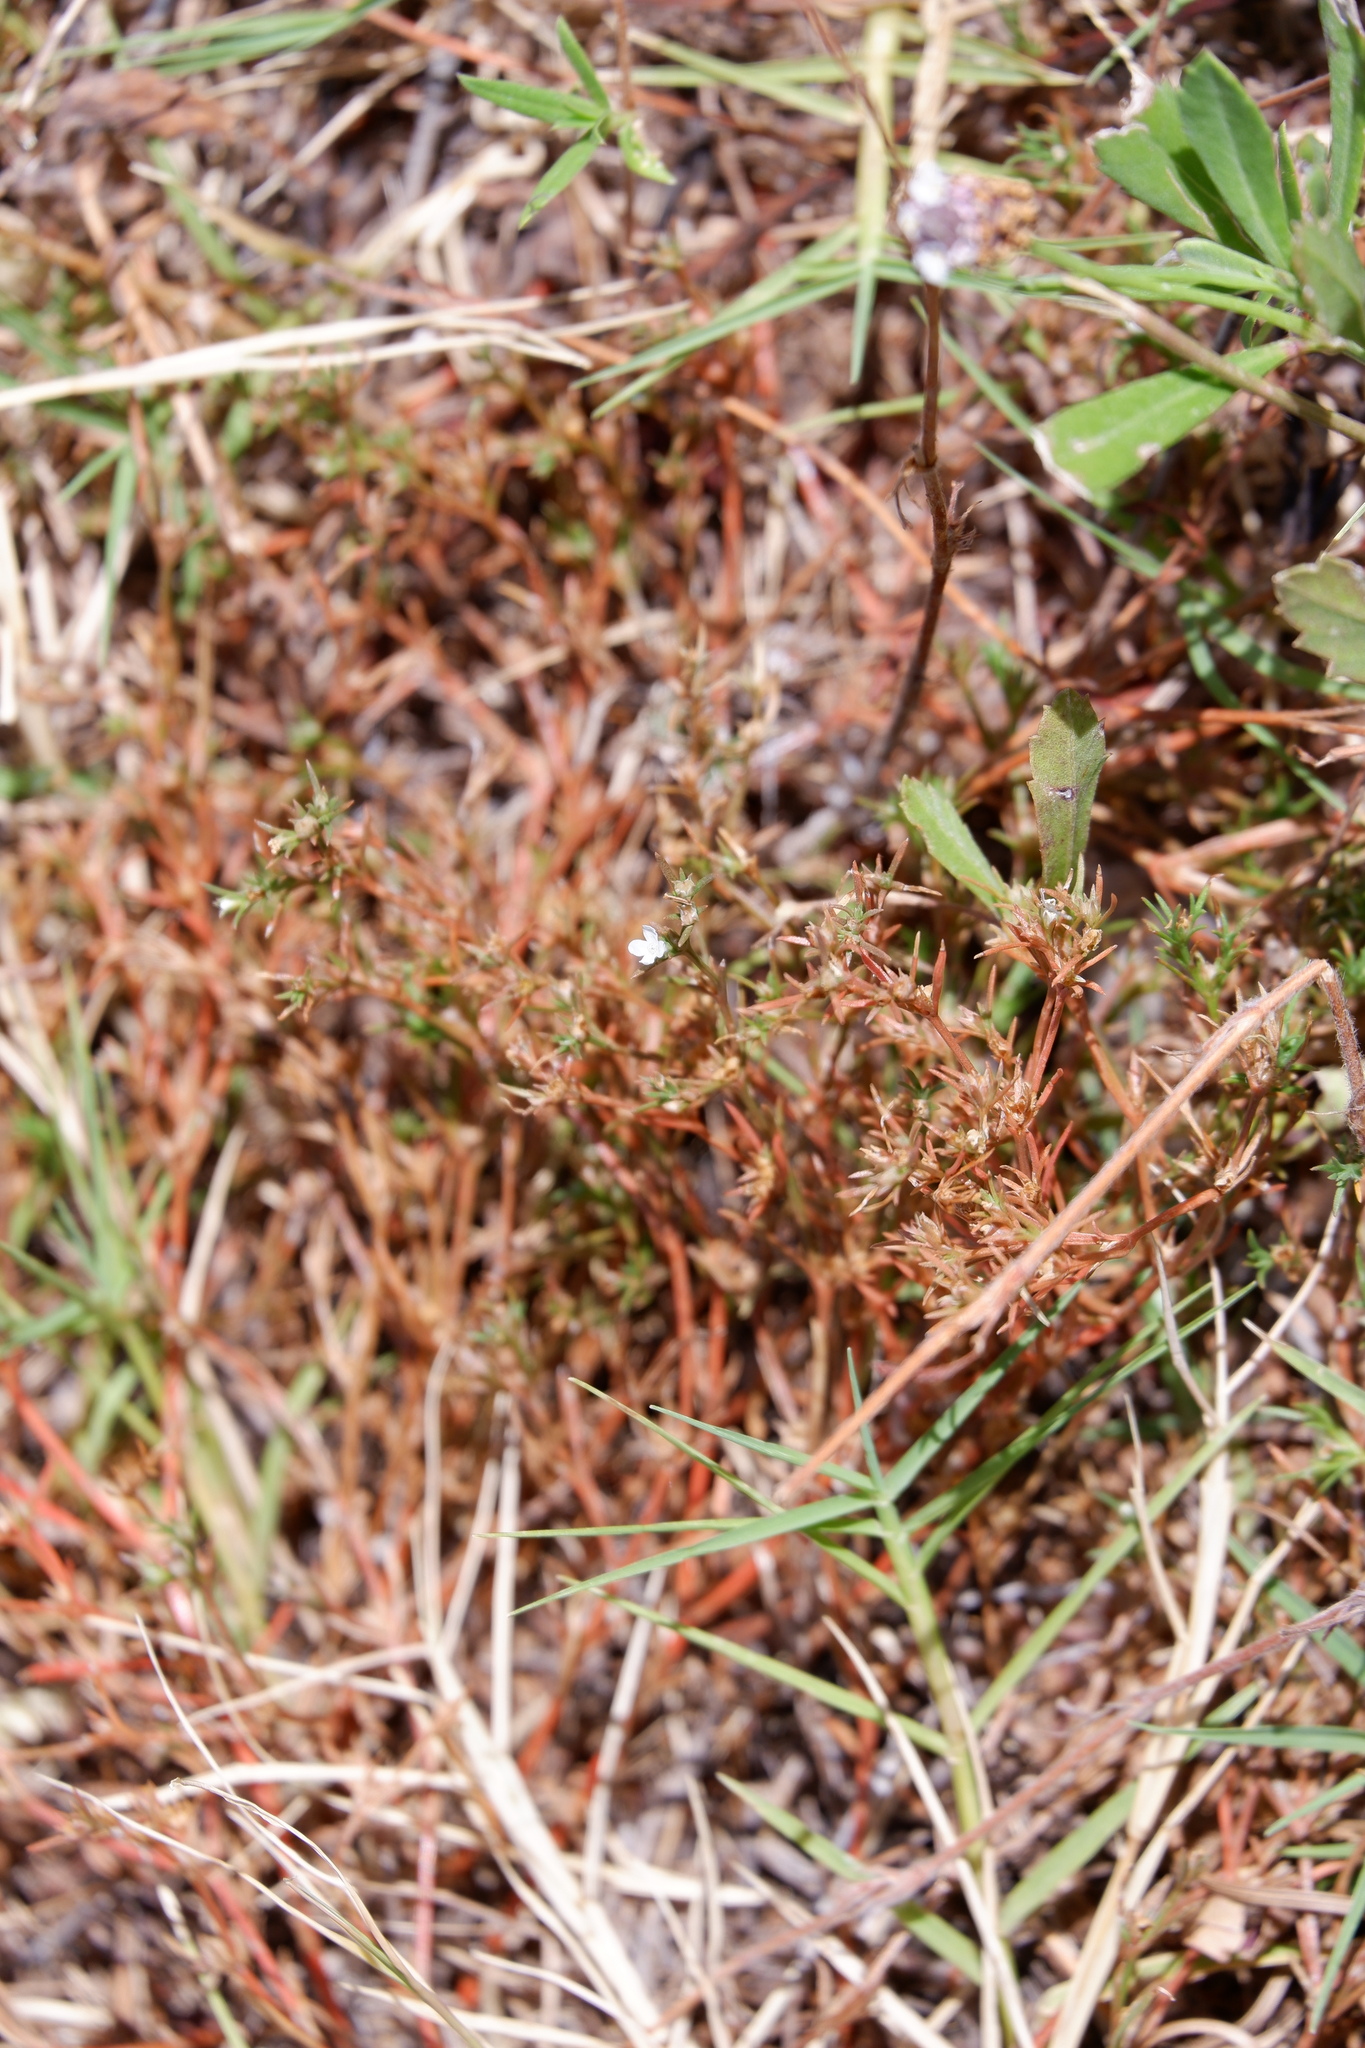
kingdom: Plantae
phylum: Tracheophyta
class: Magnoliopsida
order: Lamiales
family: Tetrachondraceae
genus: Polypremum
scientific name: Polypremum procumbens
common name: Juniper-leaf
